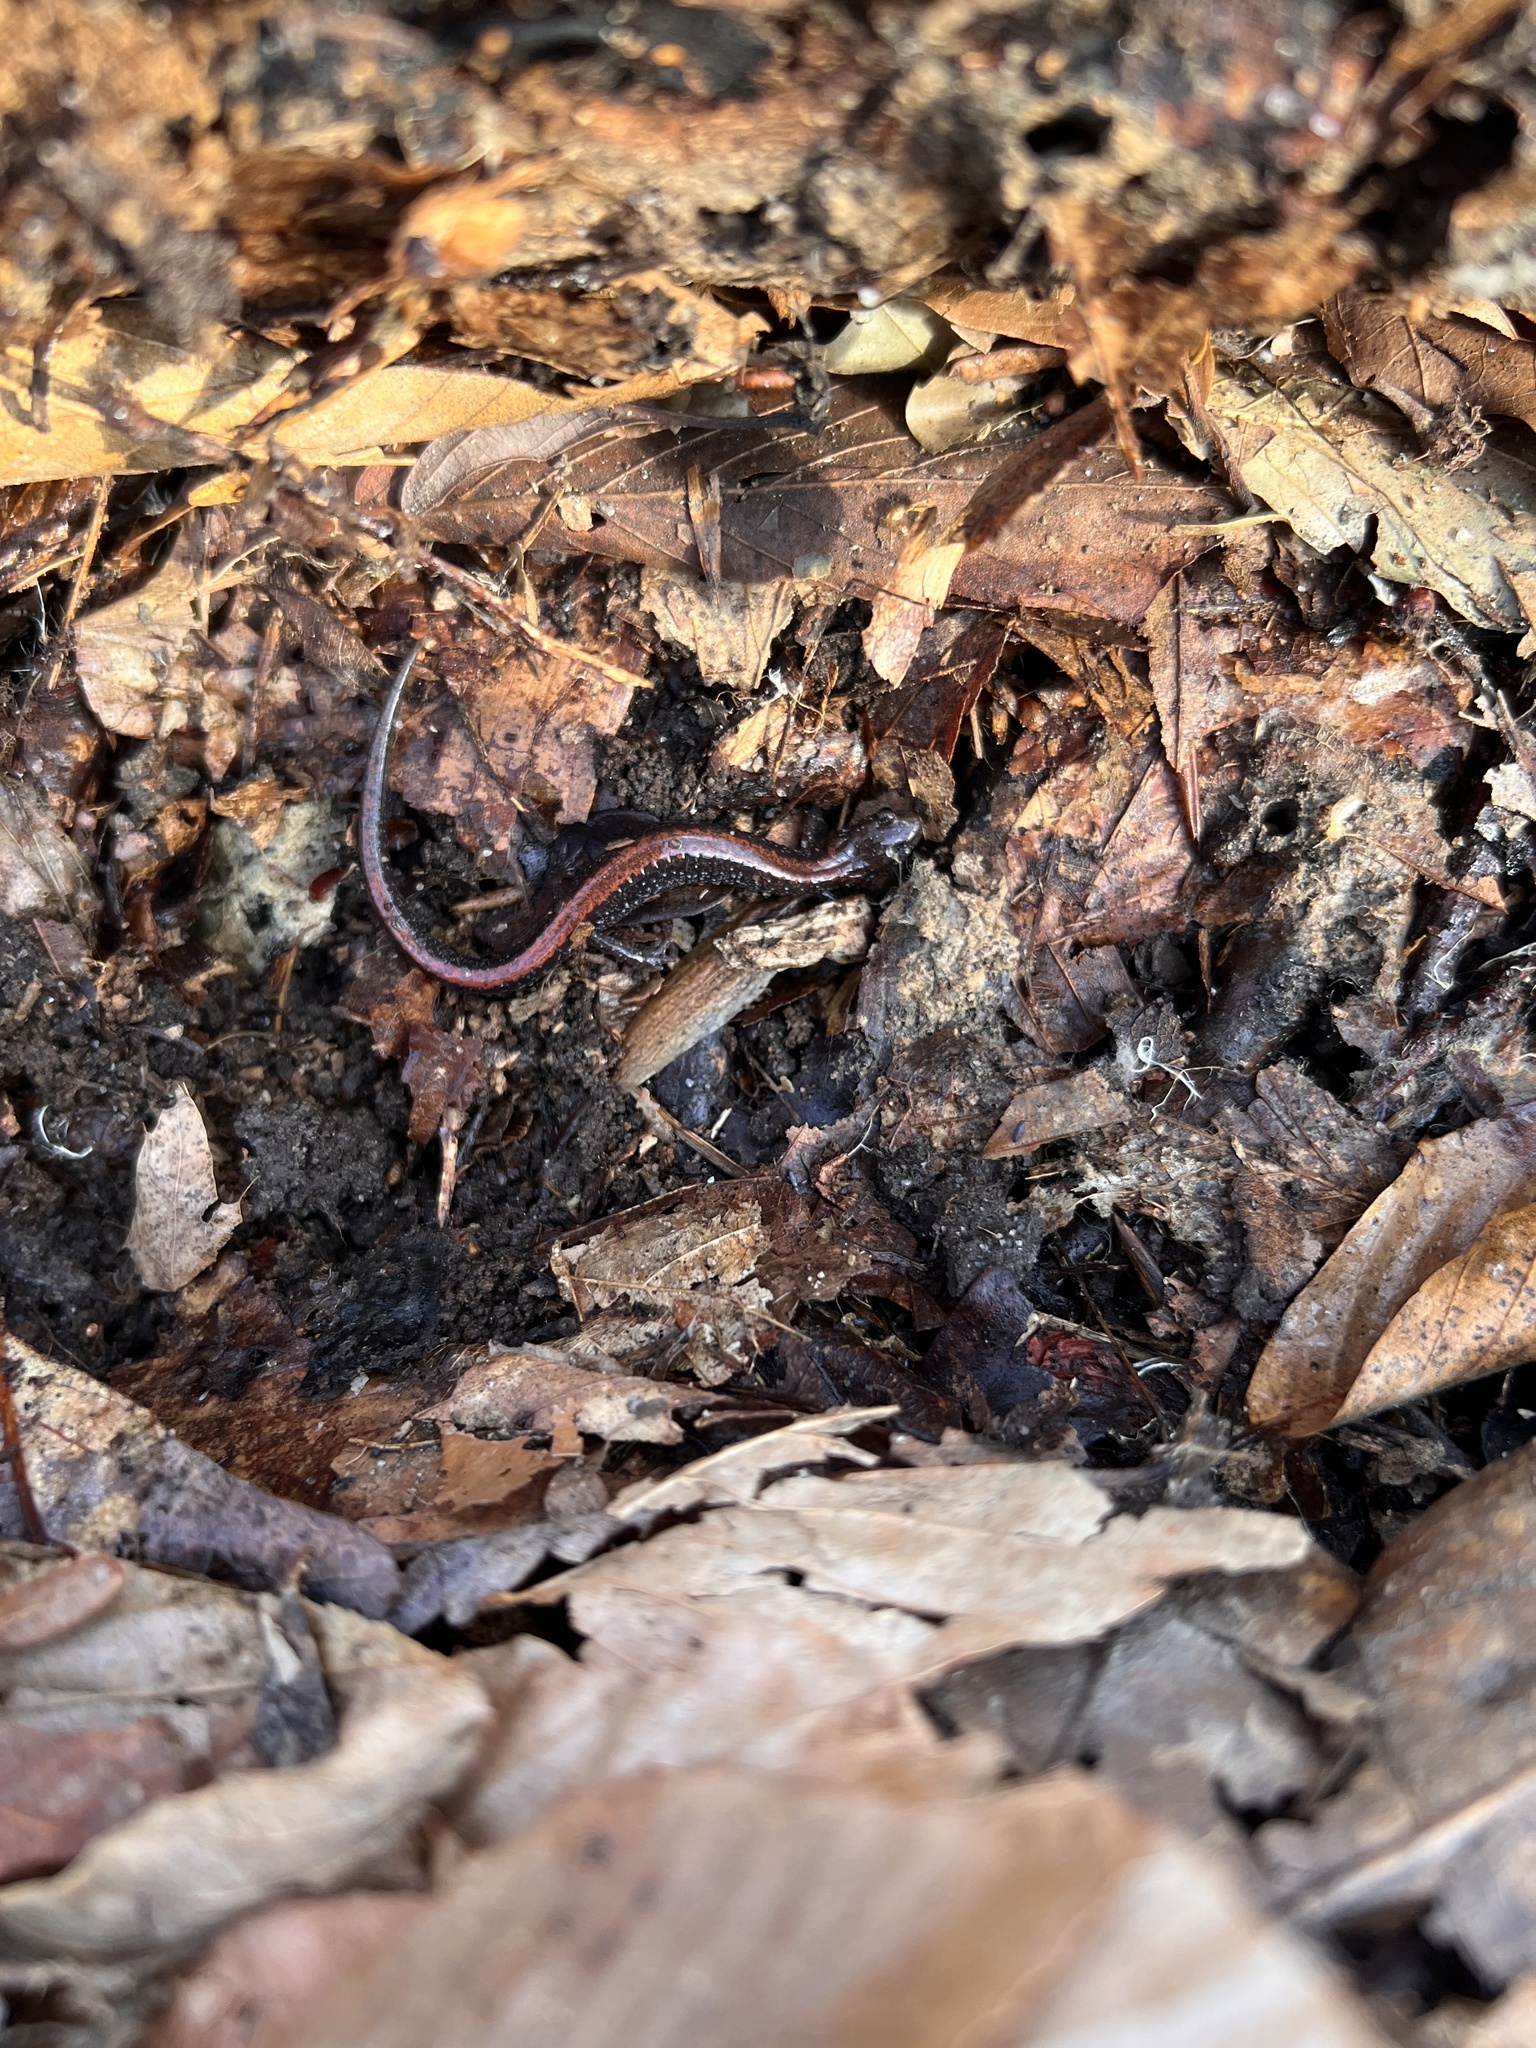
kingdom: Animalia
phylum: Chordata
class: Amphibia
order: Caudata
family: Plethodontidae
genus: Plethodon
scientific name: Plethodon cinereus
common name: Redback salamander
